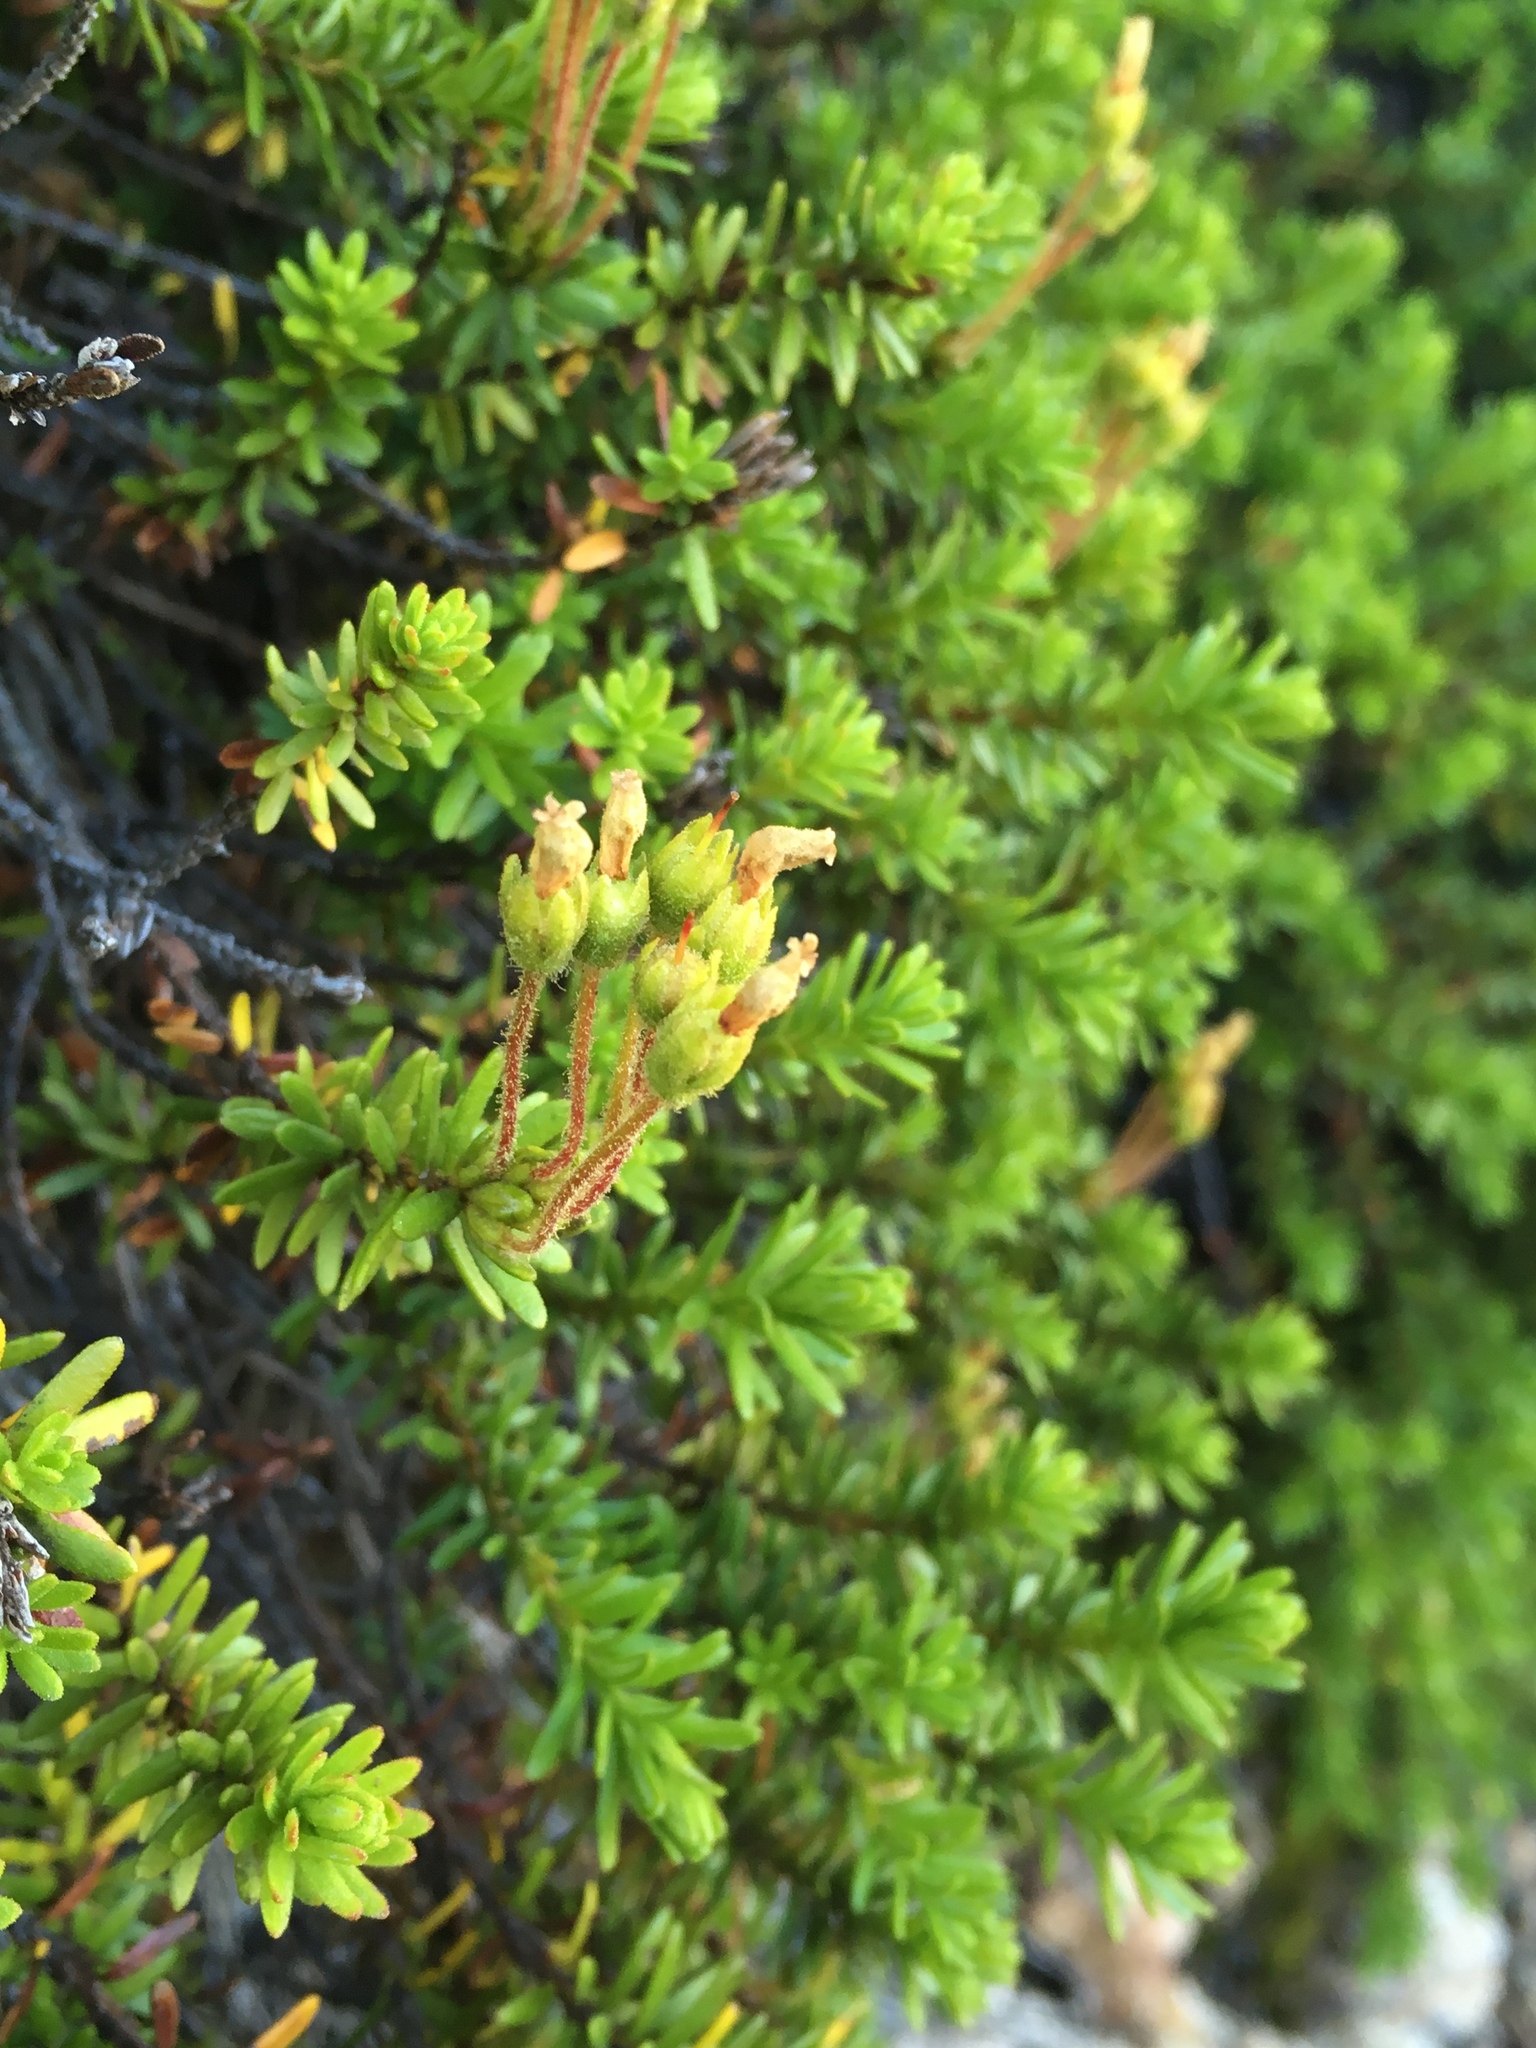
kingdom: Plantae
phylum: Tracheophyta
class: Magnoliopsida
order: Ericales
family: Ericaceae
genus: Phyllodoce
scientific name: Phyllodoce glanduliflora
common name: Cream mountain heather
